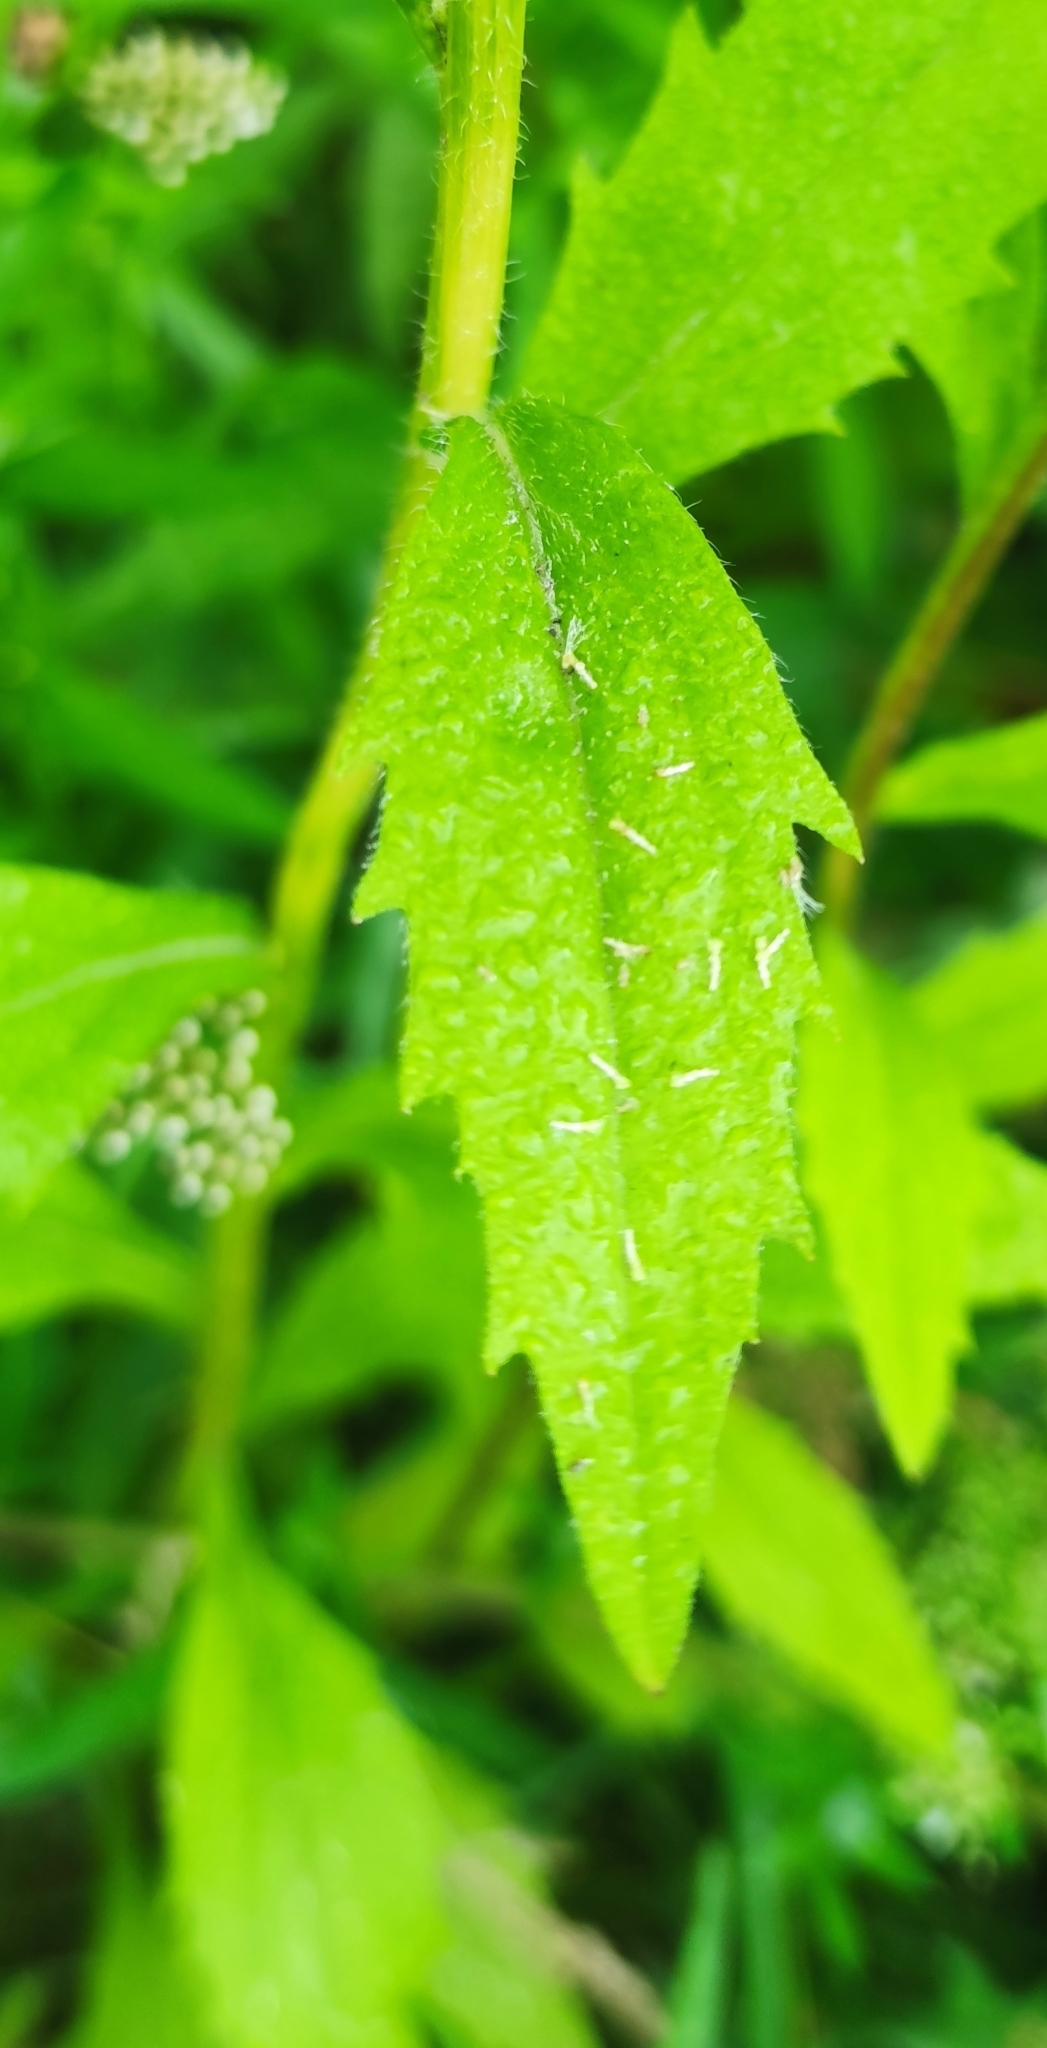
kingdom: Plantae
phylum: Tracheophyta
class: Magnoliopsida
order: Asterales
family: Asteraceae
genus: Erigeron
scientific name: Erigeron annuus
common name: Tall fleabane
